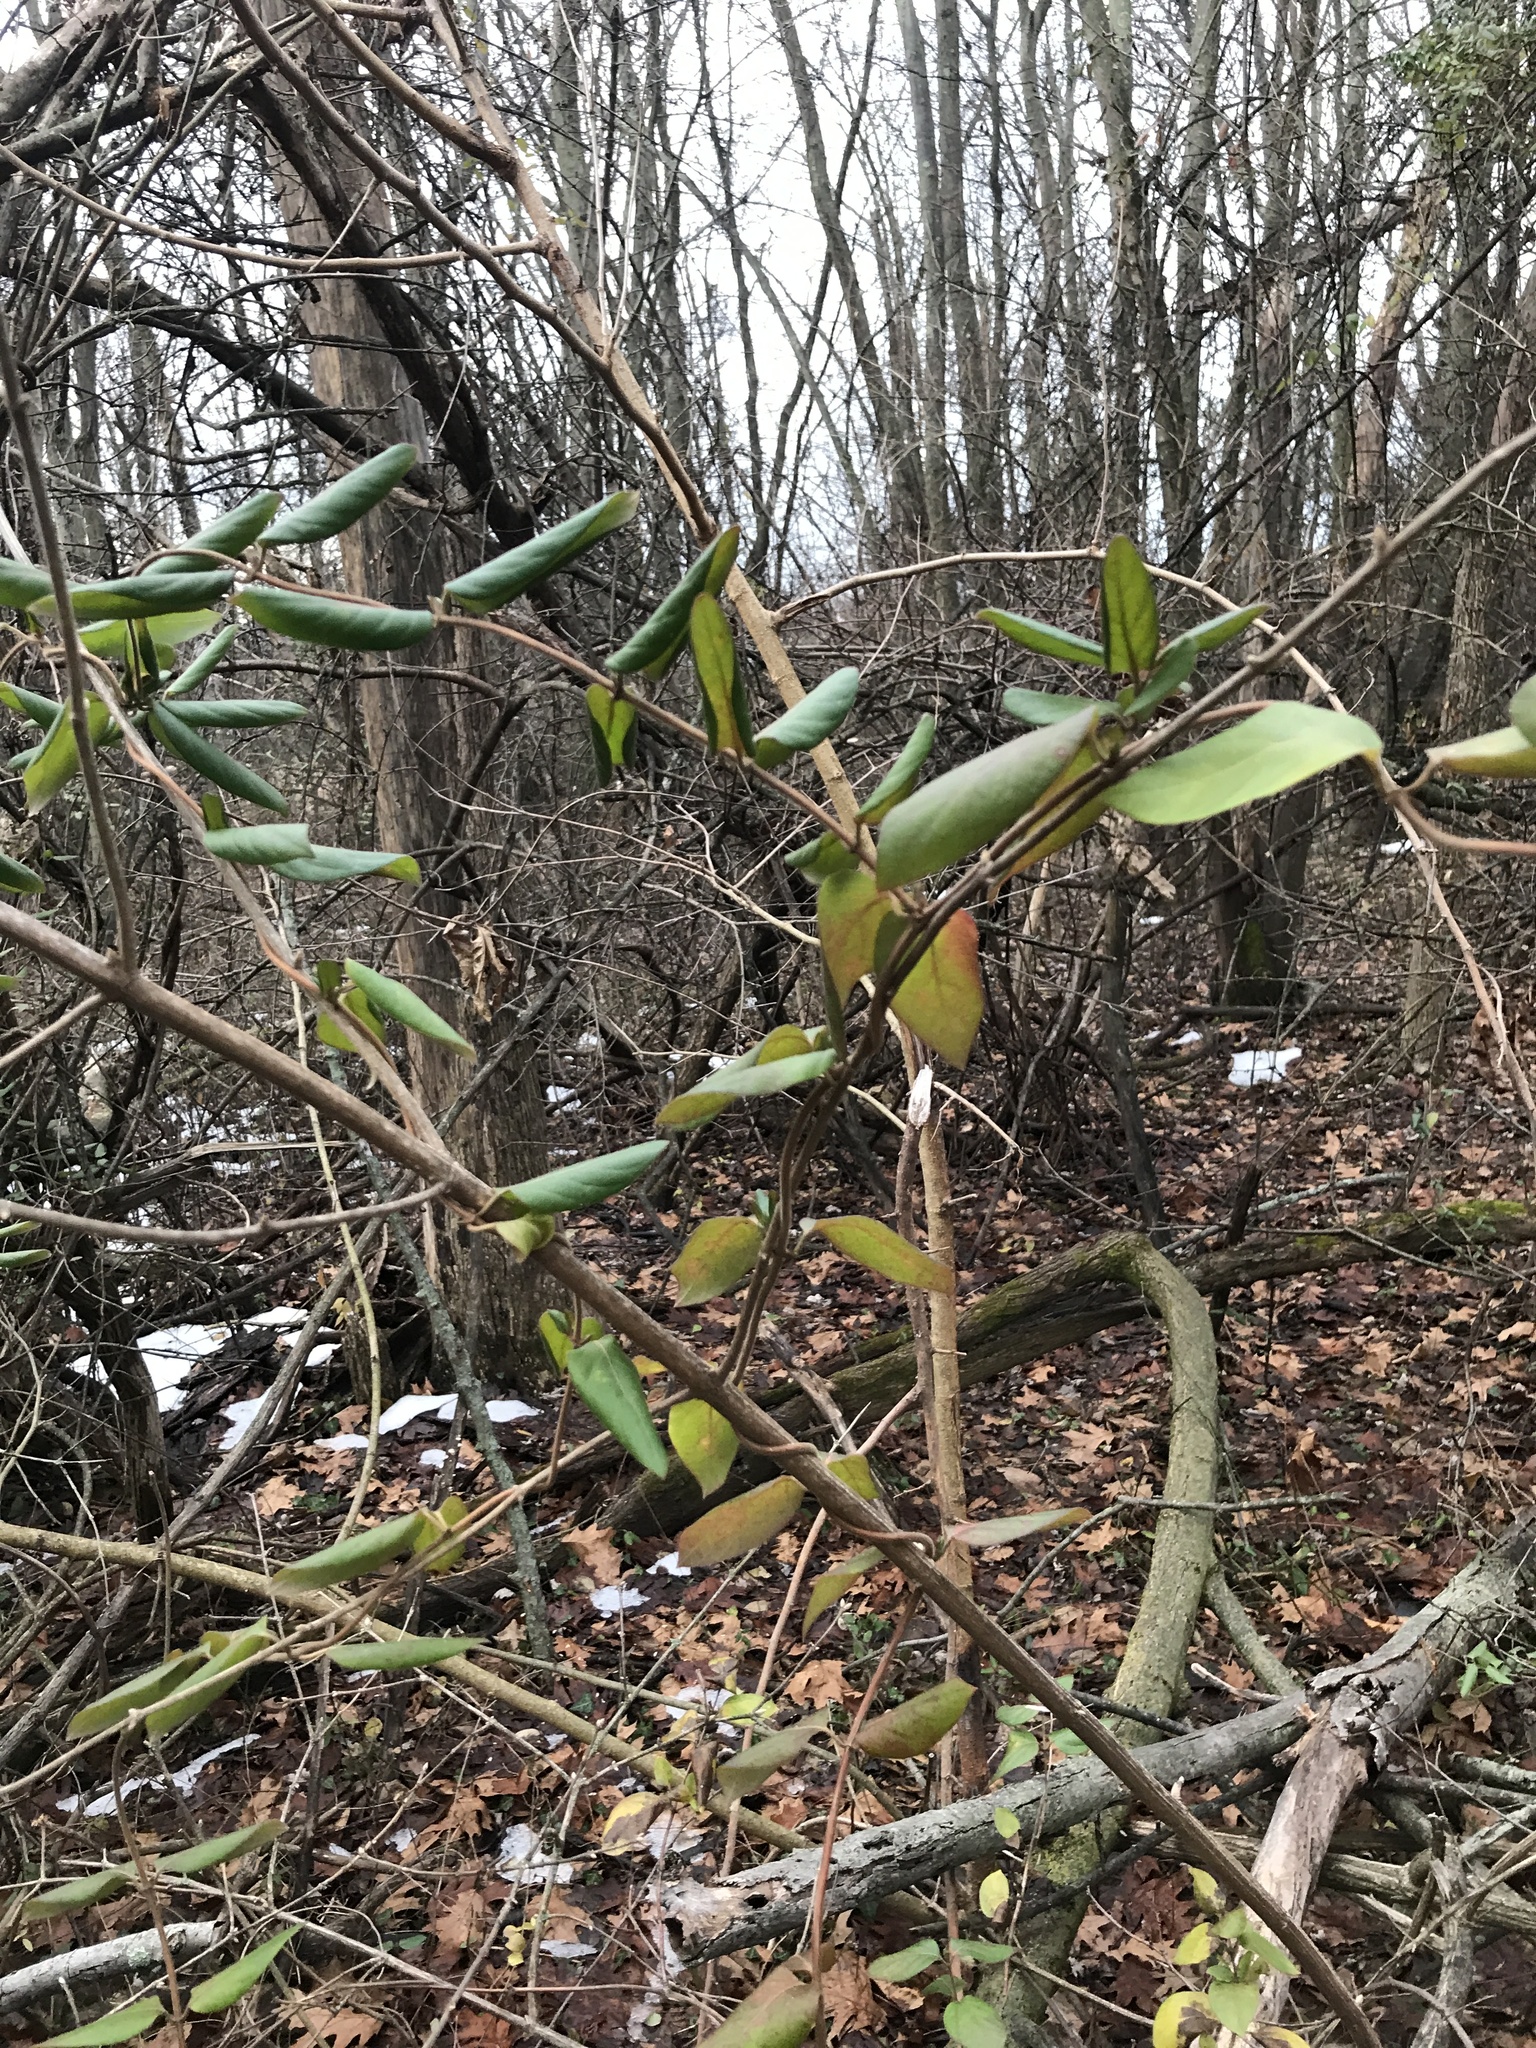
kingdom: Plantae
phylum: Tracheophyta
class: Magnoliopsida
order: Dipsacales
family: Caprifoliaceae
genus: Lonicera
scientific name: Lonicera japonica
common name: Japanese honeysuckle
